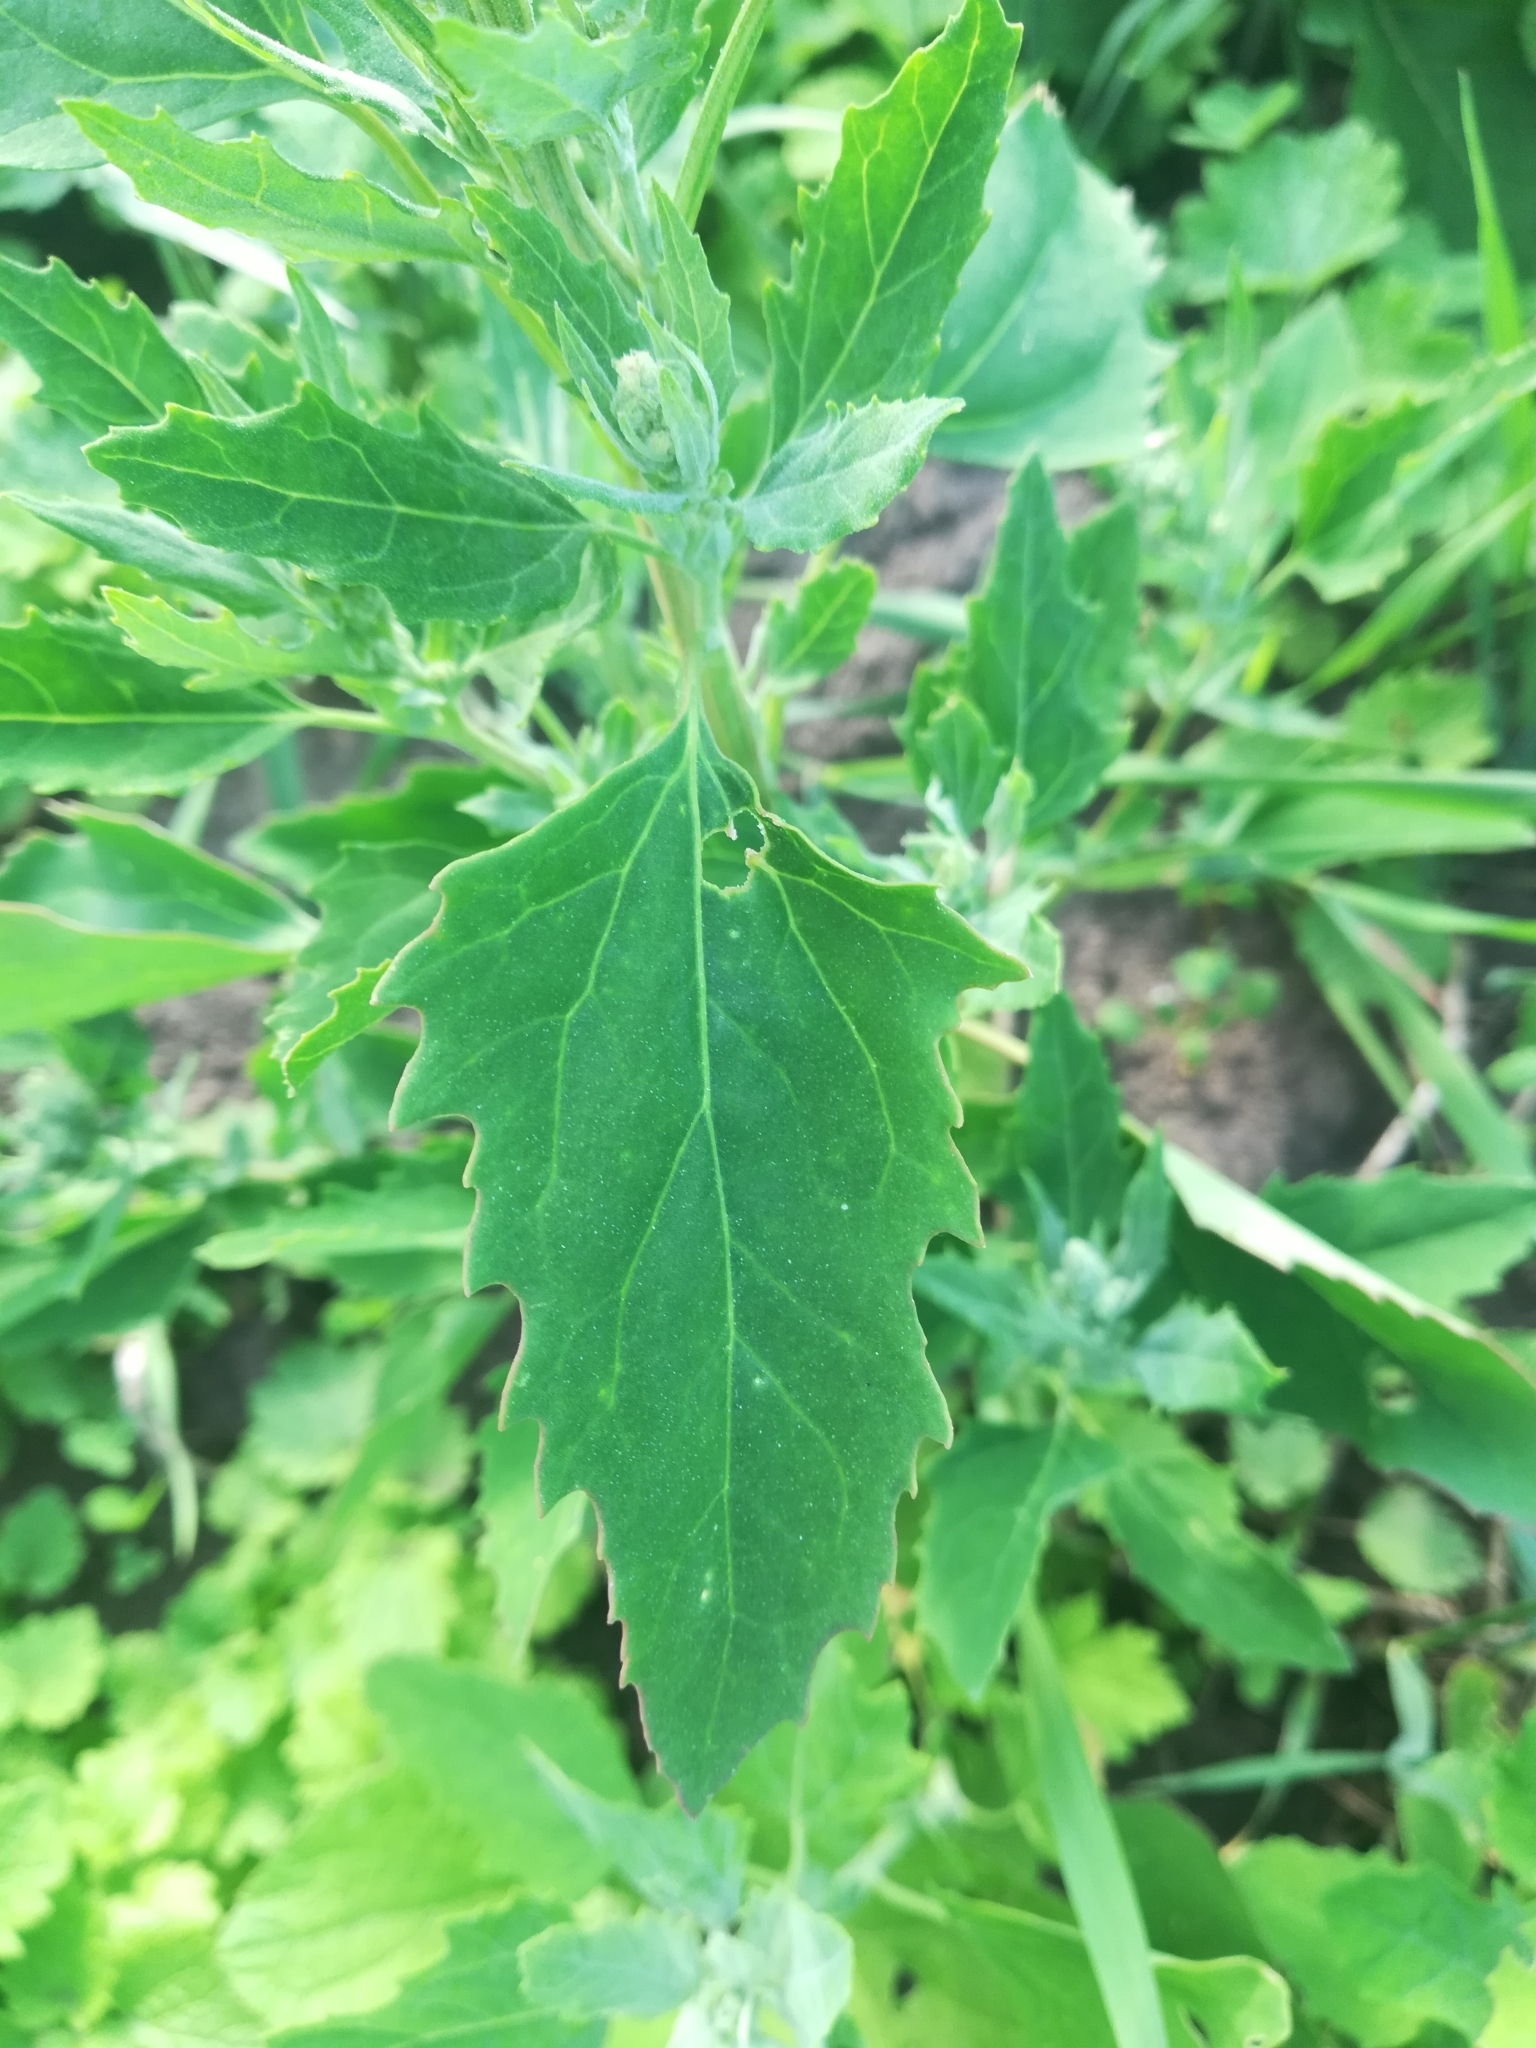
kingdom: Plantae
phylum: Tracheophyta
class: Magnoliopsida
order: Caryophyllales
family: Amaranthaceae
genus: Chenopodium
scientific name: Chenopodium album
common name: Fat-hen
